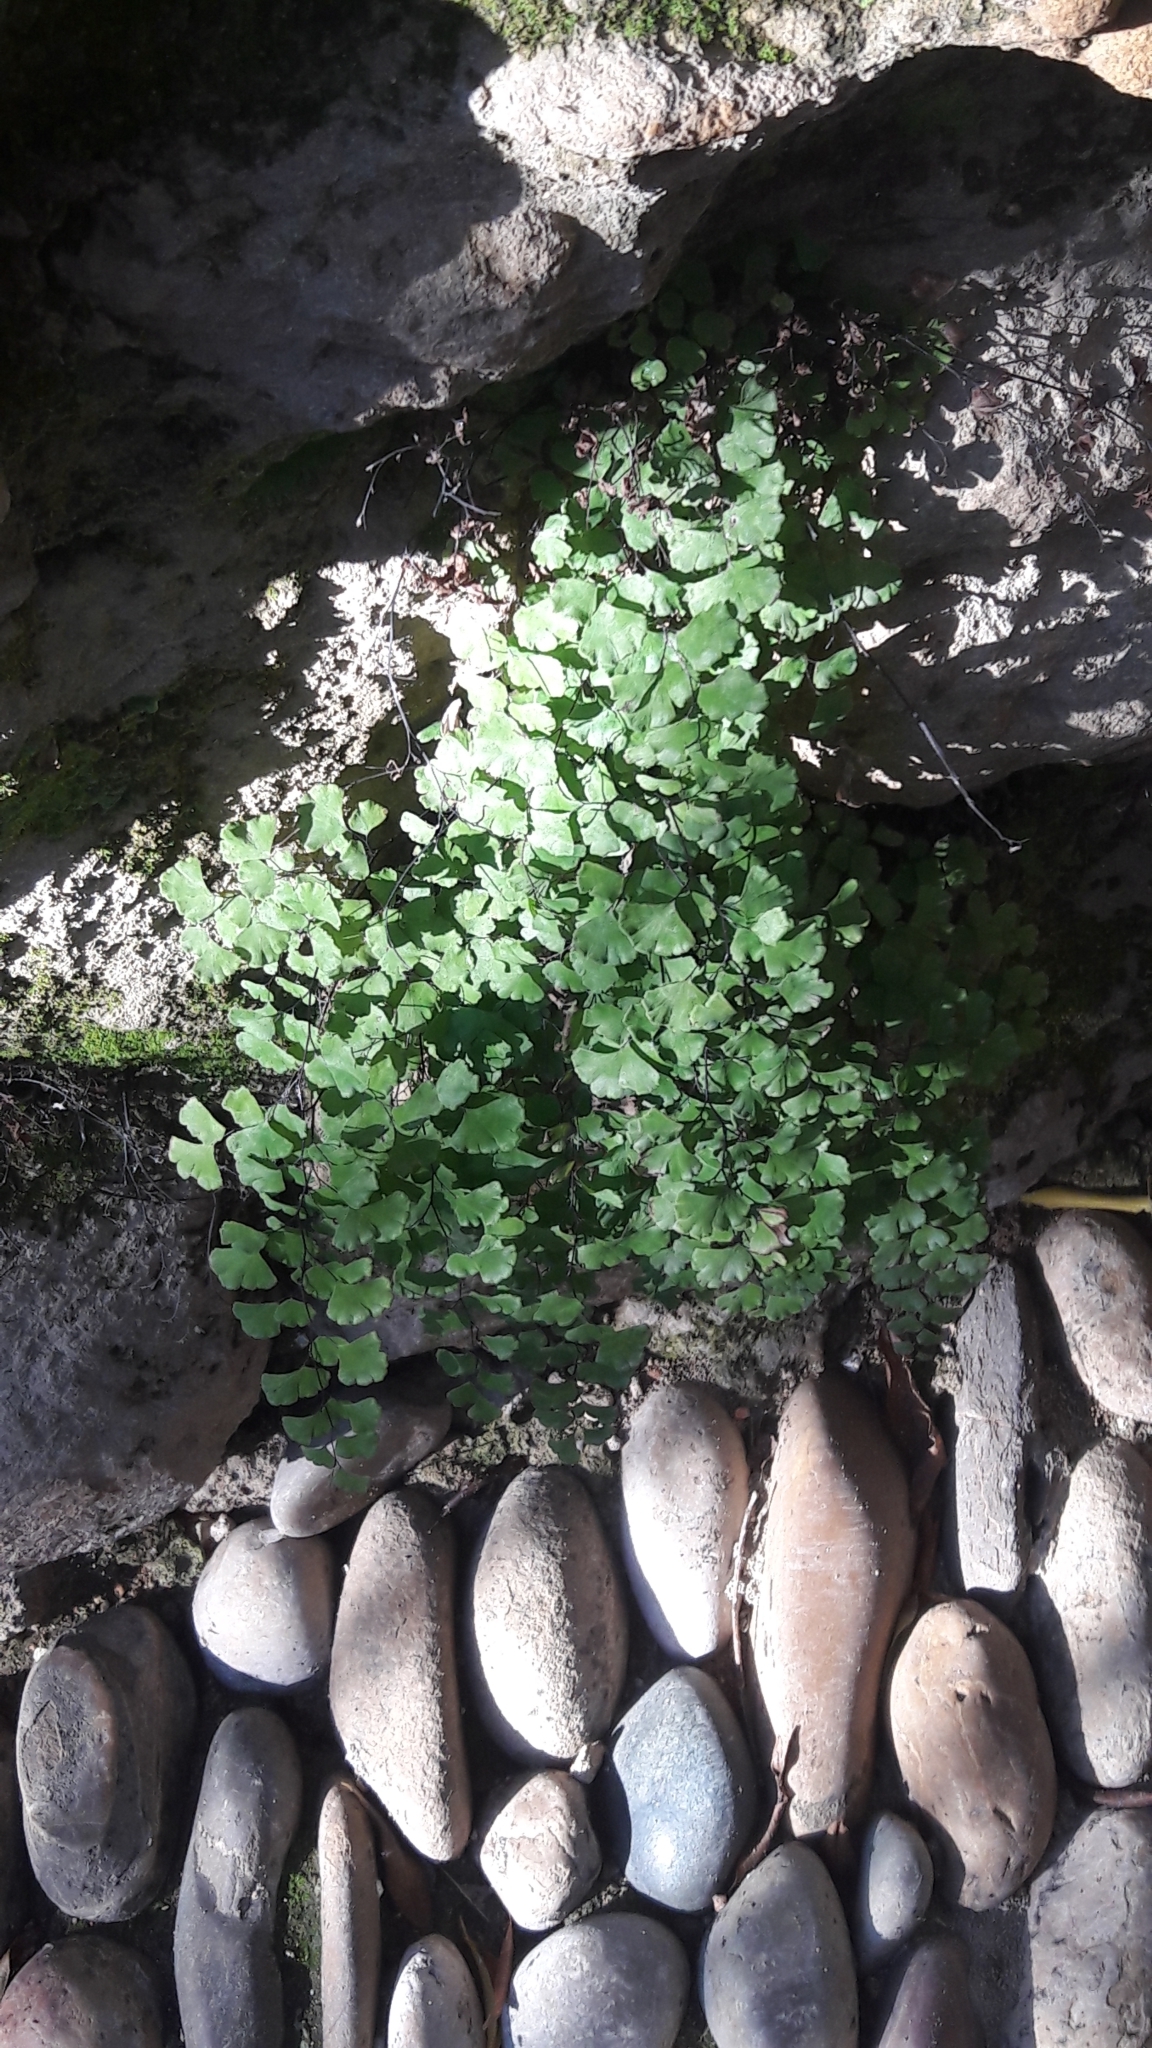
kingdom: Plantae
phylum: Tracheophyta
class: Polypodiopsida
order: Polypodiales
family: Pteridaceae
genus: Adiantum
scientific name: Adiantum capillus-veneris
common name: Maidenhair fern
